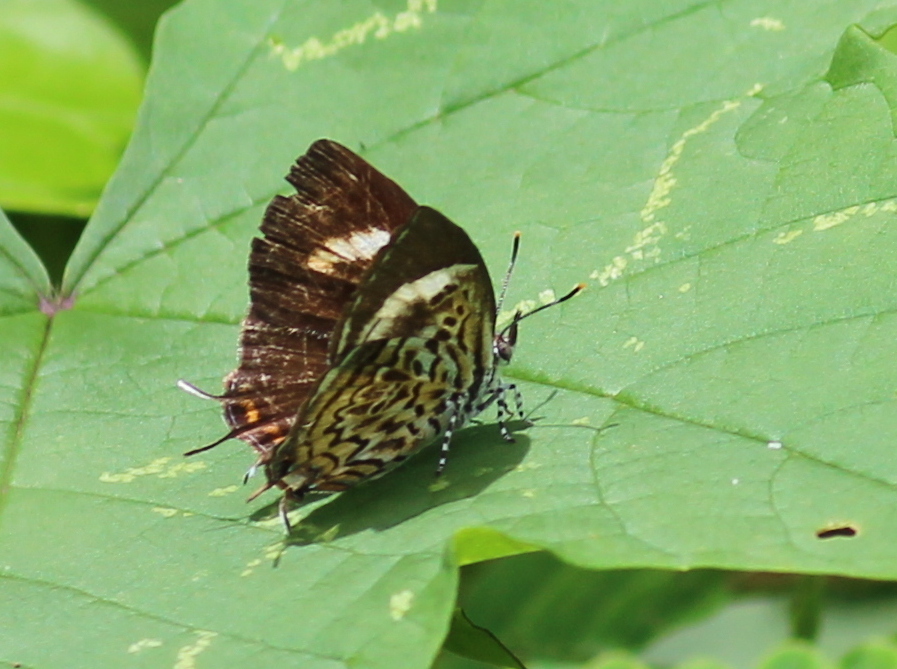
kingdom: Animalia
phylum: Arthropoda
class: Insecta
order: Lepidoptera
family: Lycaenidae
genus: Rathinda
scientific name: Rathinda amor
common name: Monkey puzzle
